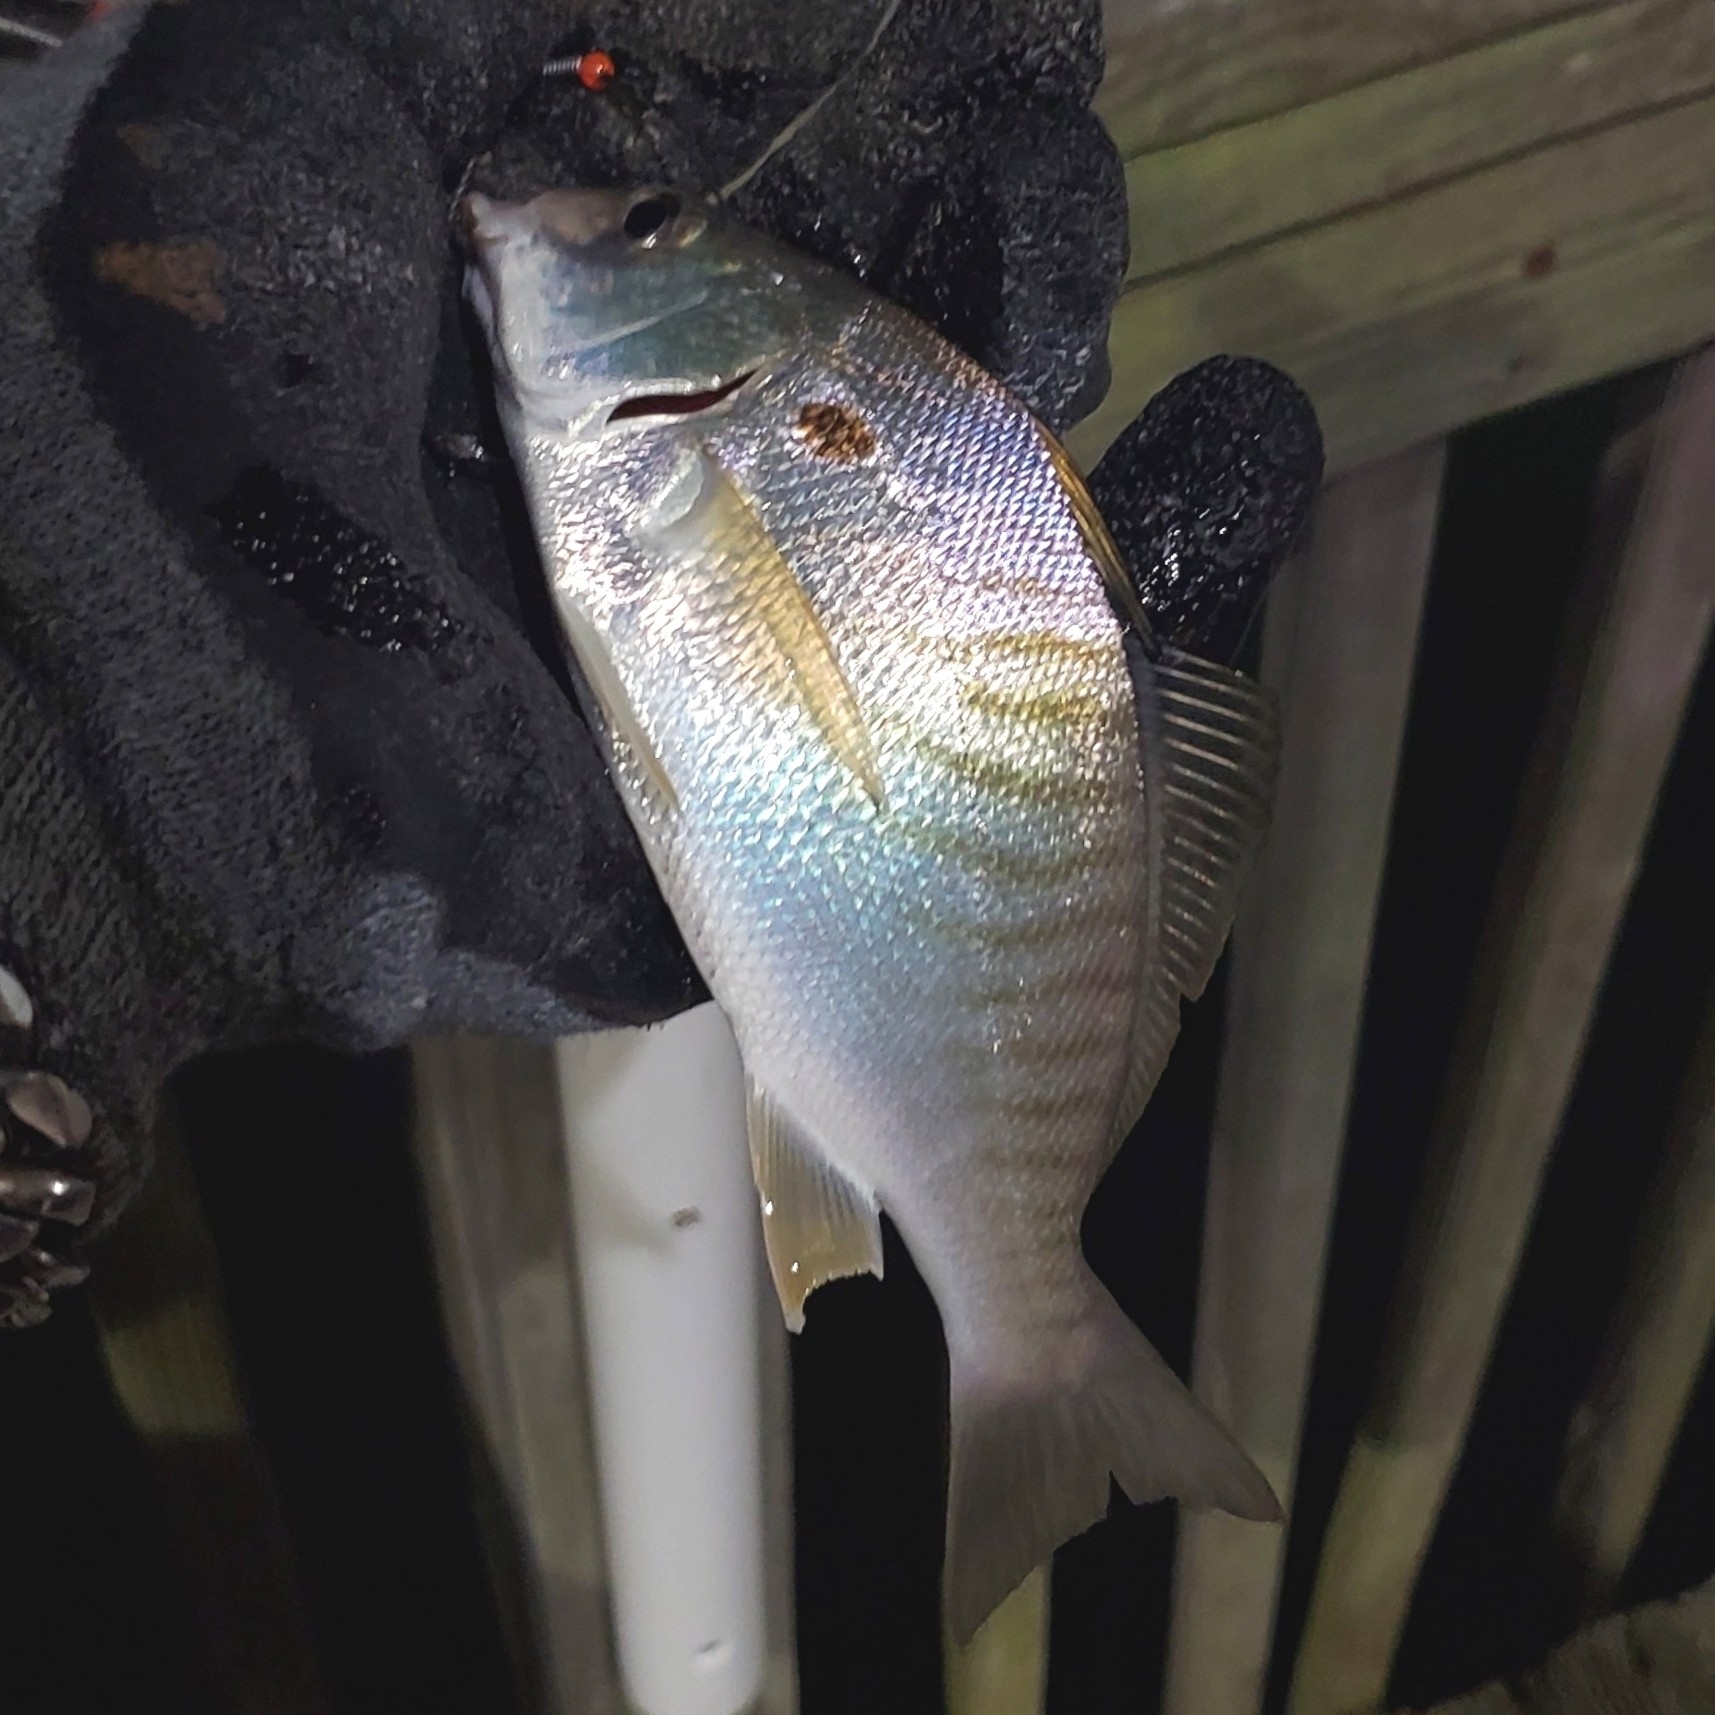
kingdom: Animalia
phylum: Chordata
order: Perciformes
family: Sciaenidae
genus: Leiostomus
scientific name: Leiostomus xanthurus
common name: Spot
